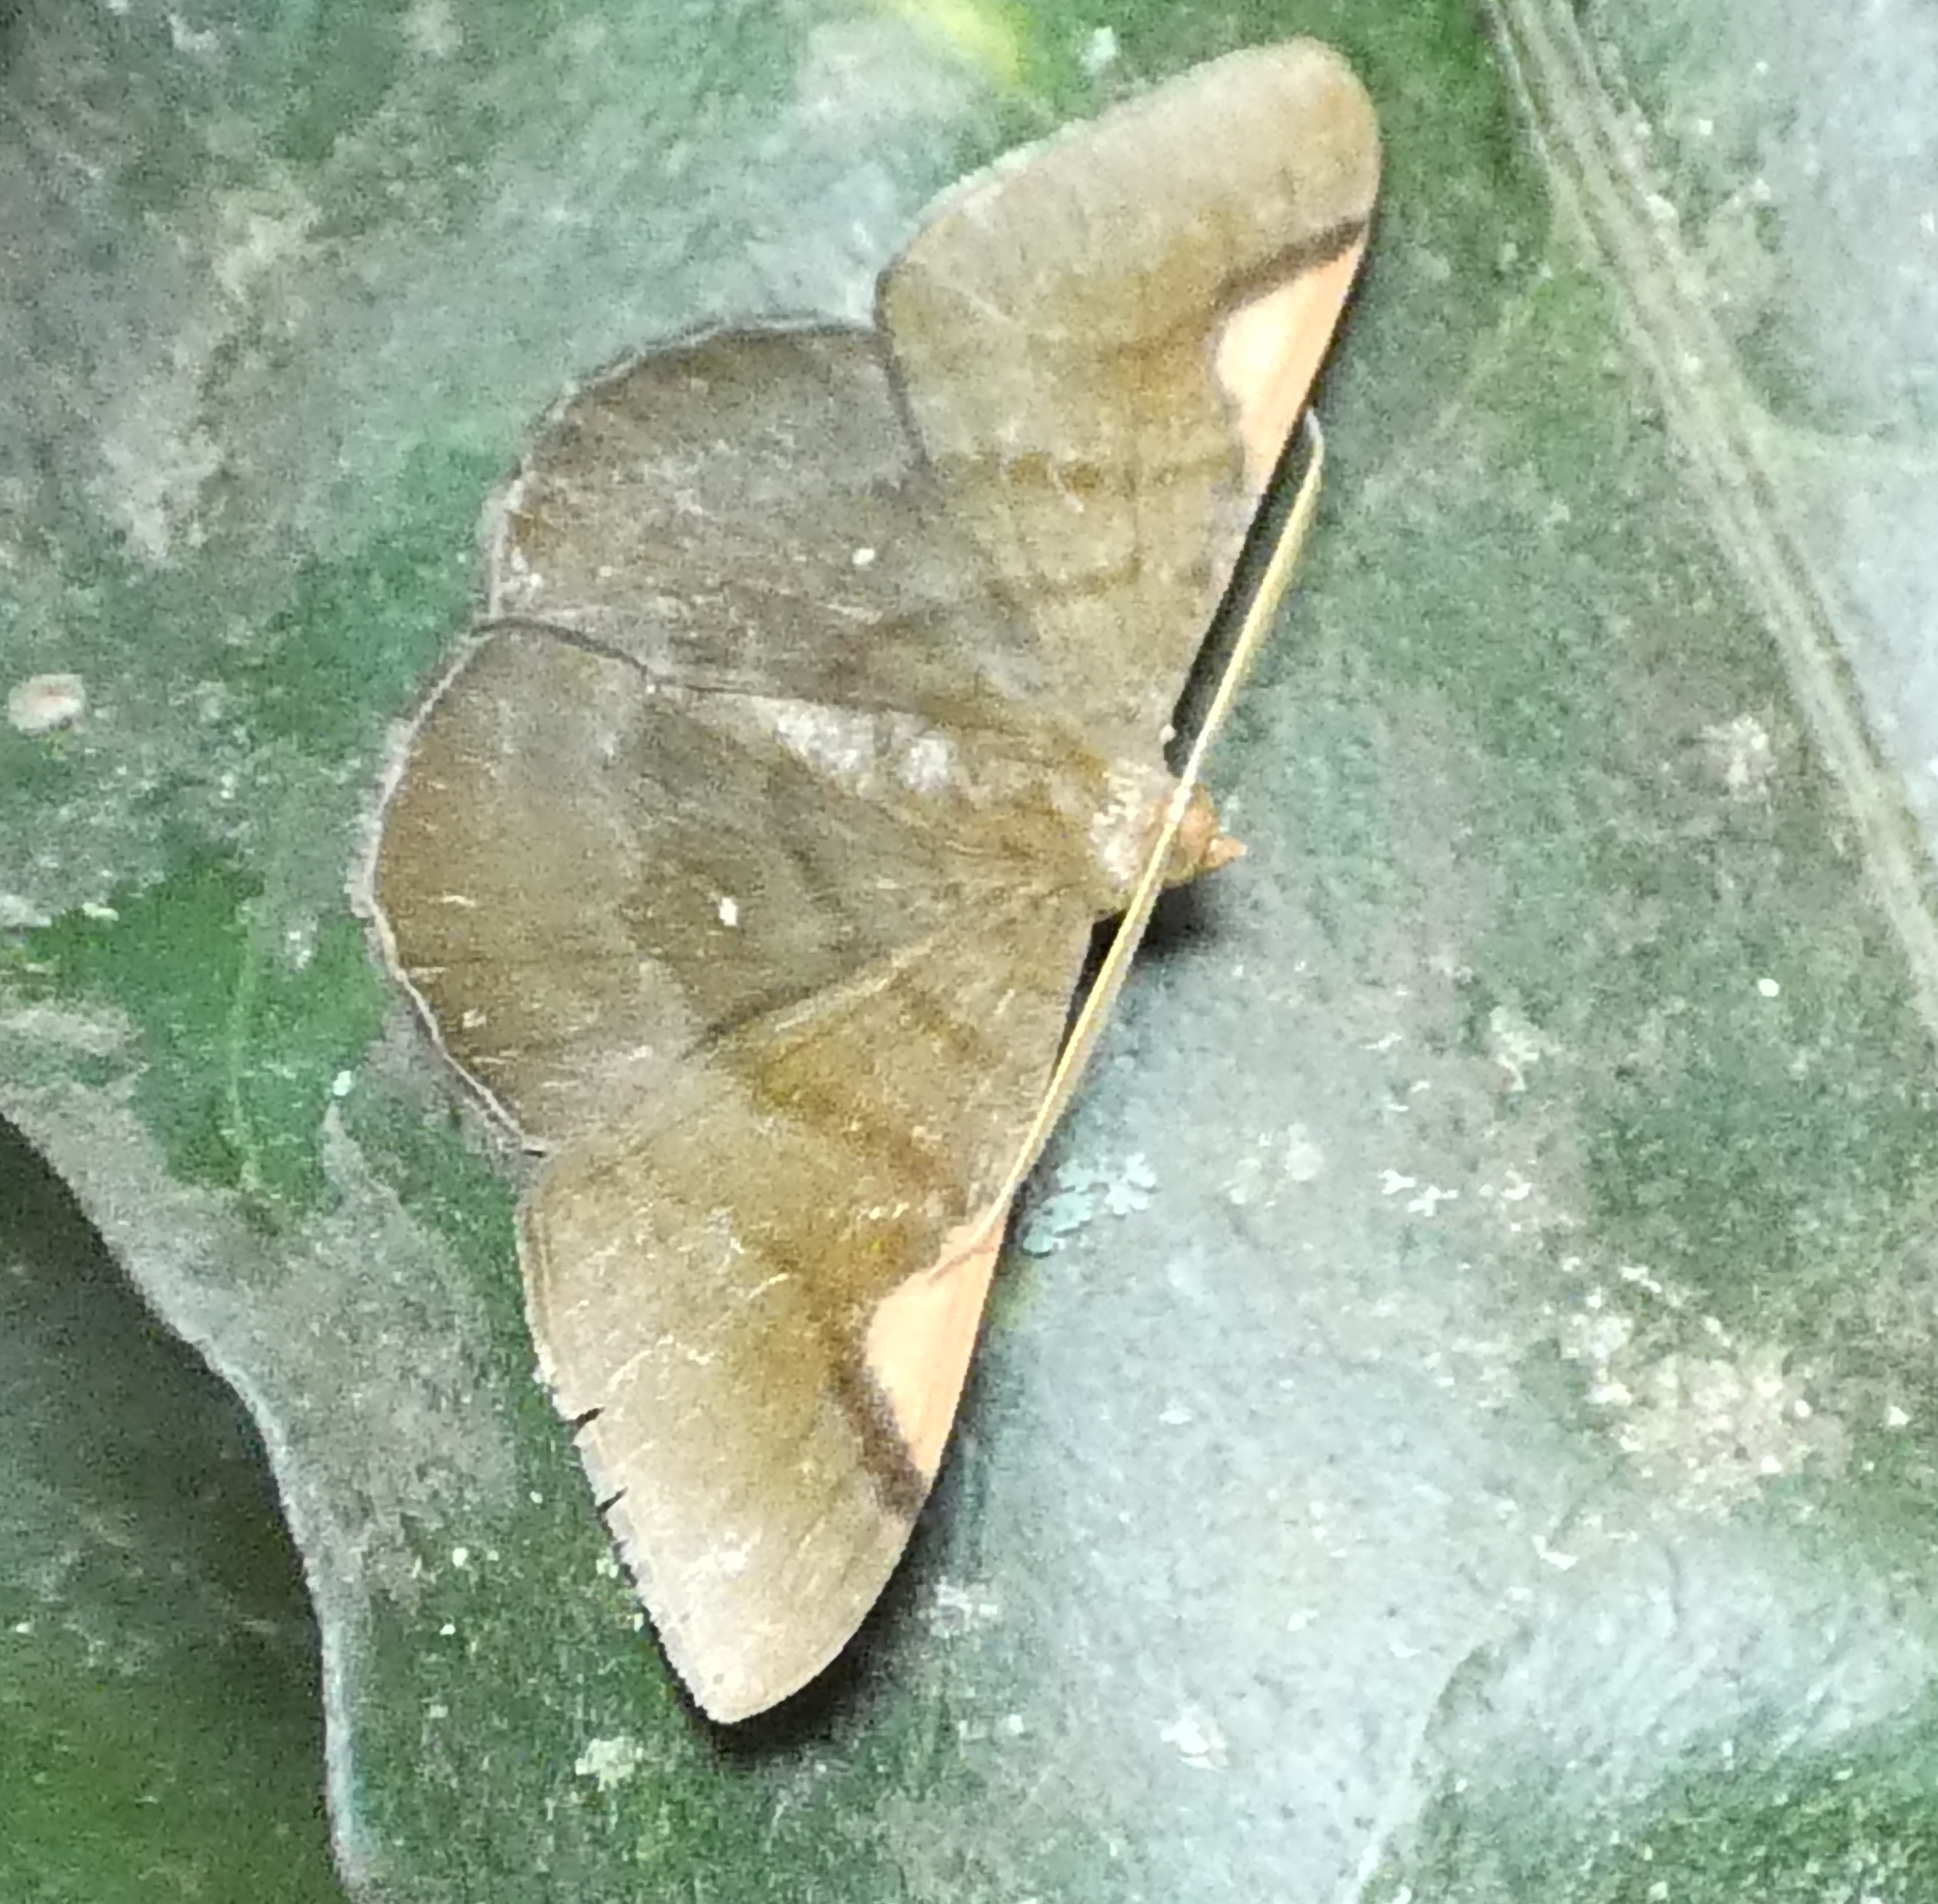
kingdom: Animalia
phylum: Arthropoda
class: Insecta
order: Lepidoptera
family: Geometridae
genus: Sphacelodes
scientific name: Sphacelodes vulneraria
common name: Looper moth
